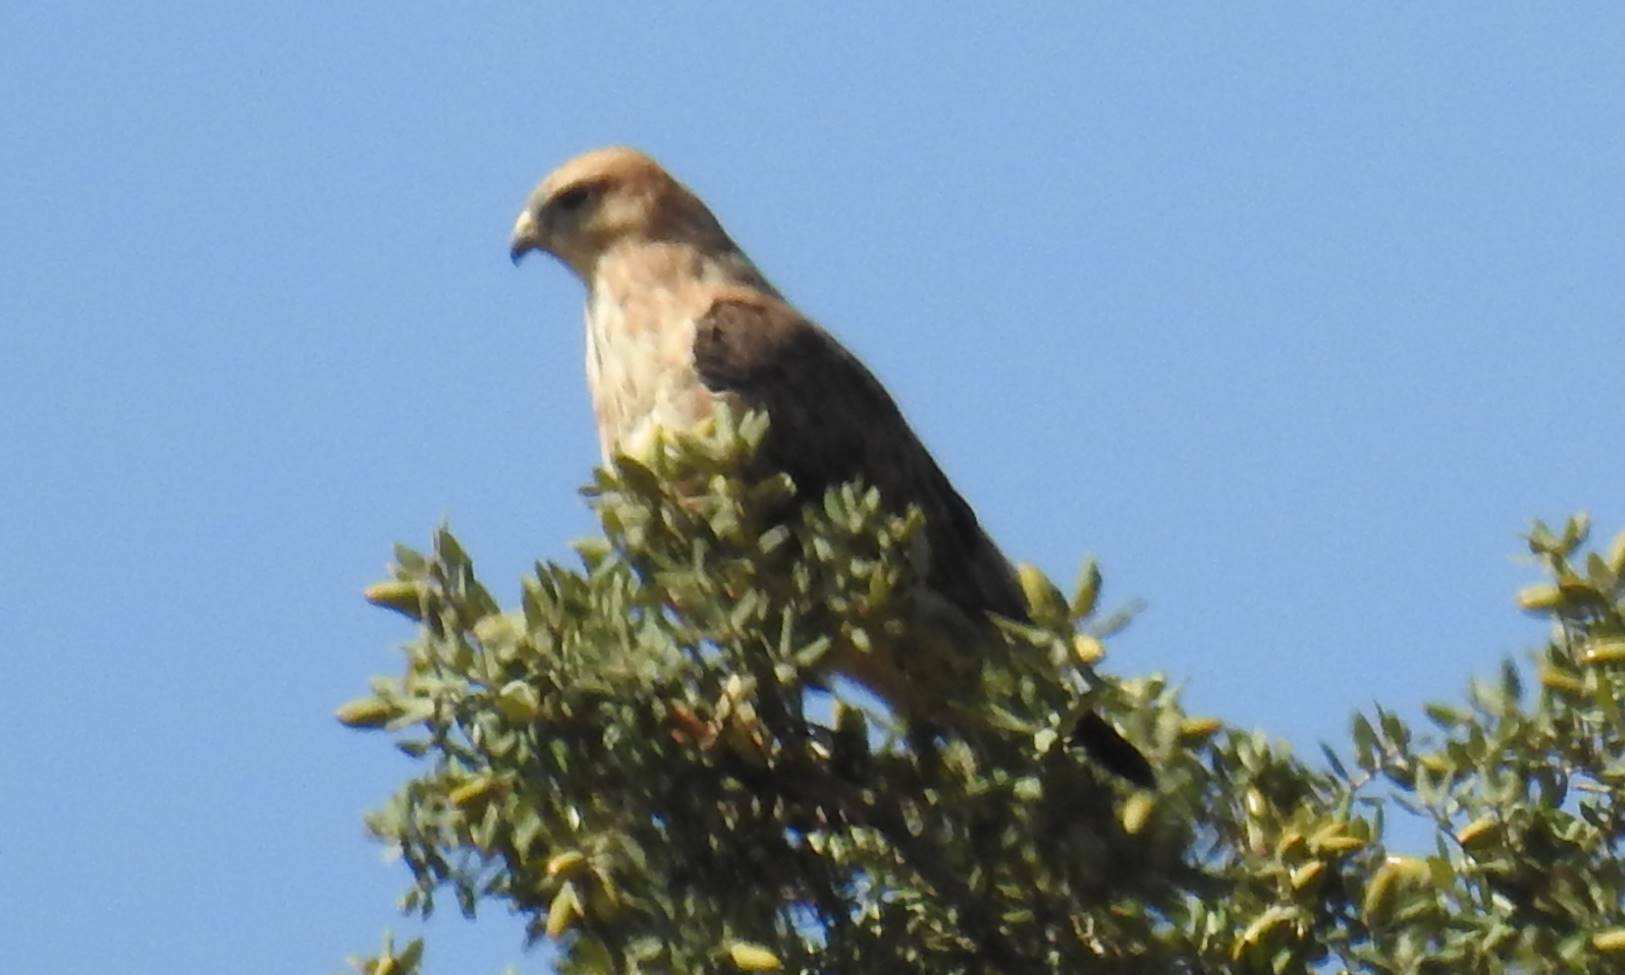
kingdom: Animalia
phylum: Chordata
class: Aves
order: Accipitriformes
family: Accipitridae
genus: Buteo
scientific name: Buteo rufinus
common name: Long-legged buzzard
